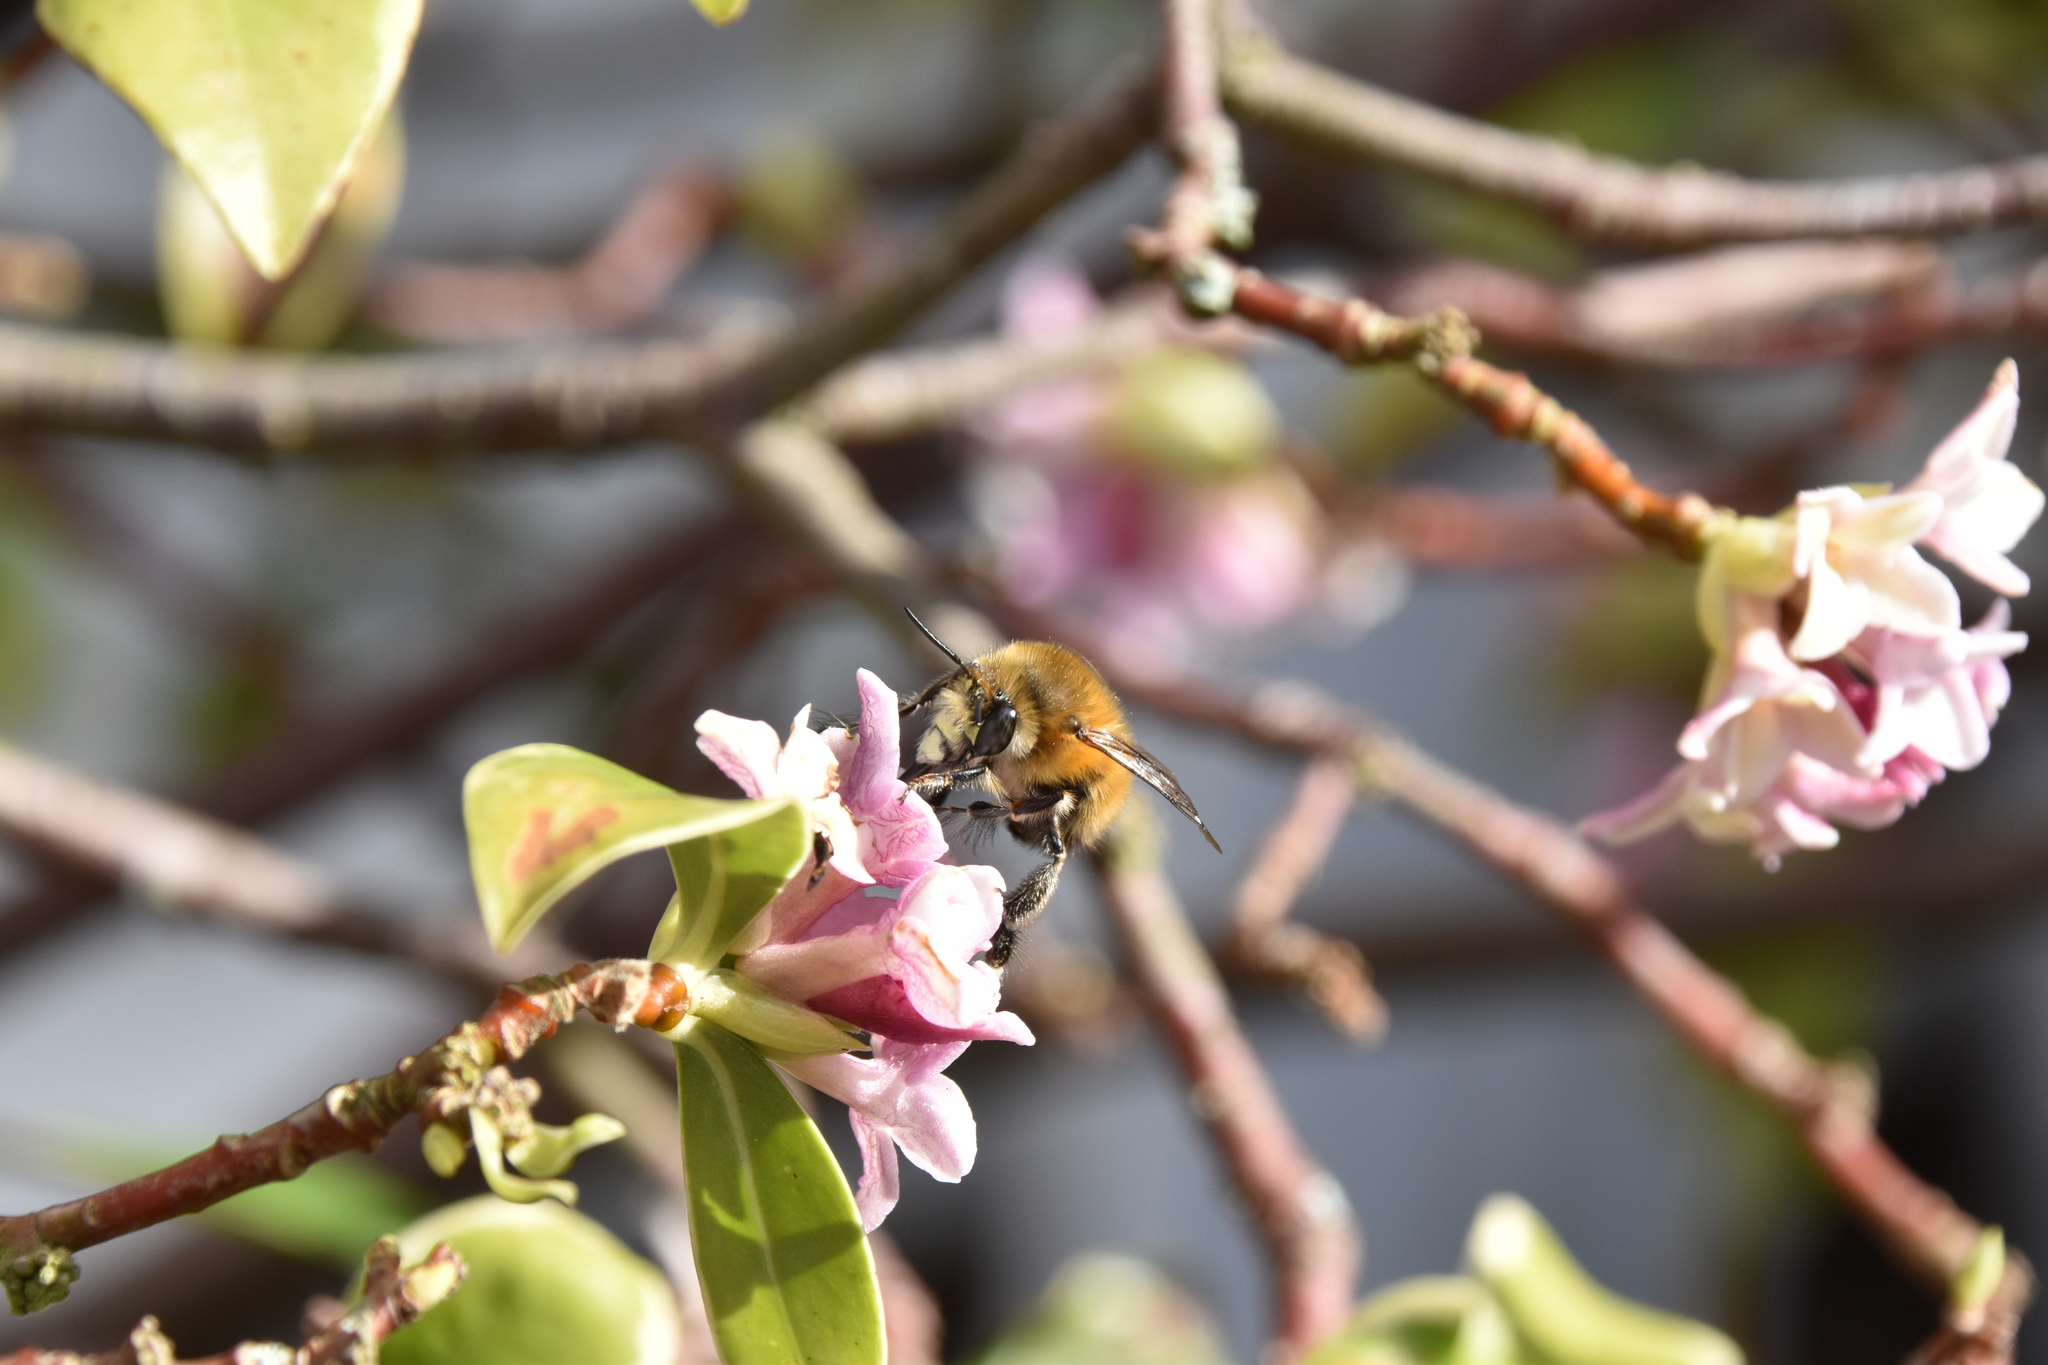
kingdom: Animalia
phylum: Arthropoda
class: Insecta
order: Hymenoptera
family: Apidae
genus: Anthophora
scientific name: Anthophora plumipes
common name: Hairy-footed flower bee
